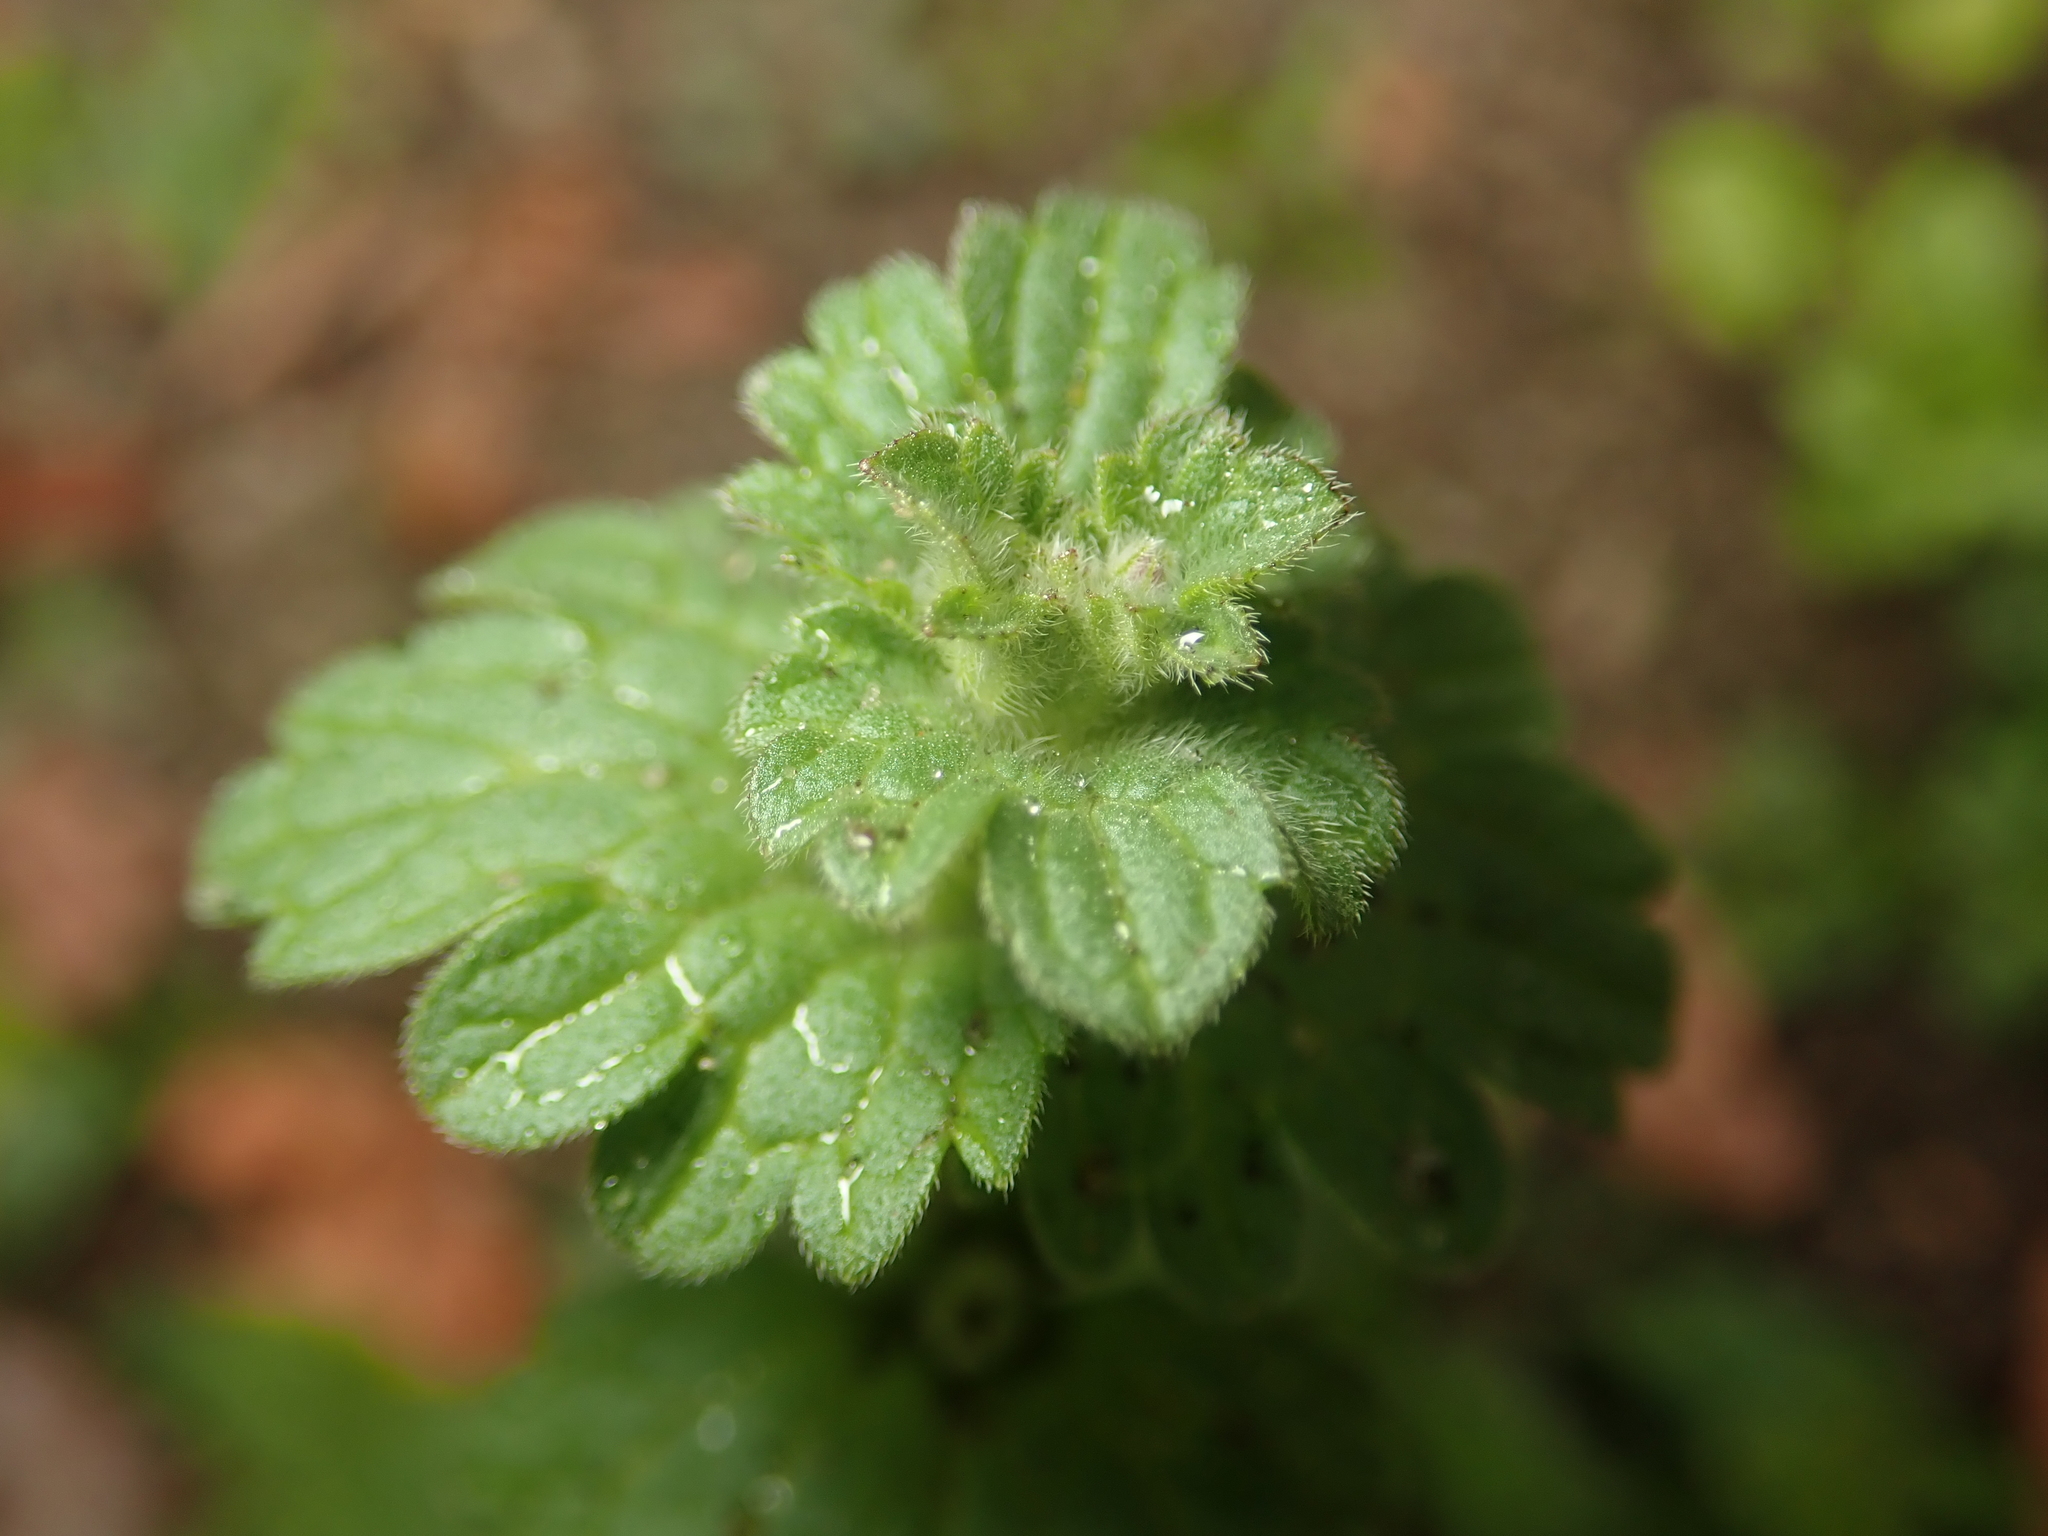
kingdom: Plantae
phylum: Tracheophyta
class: Magnoliopsida
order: Lamiales
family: Lamiaceae
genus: Lamium
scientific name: Lamium amplexicaule
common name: Henbit dead-nettle
